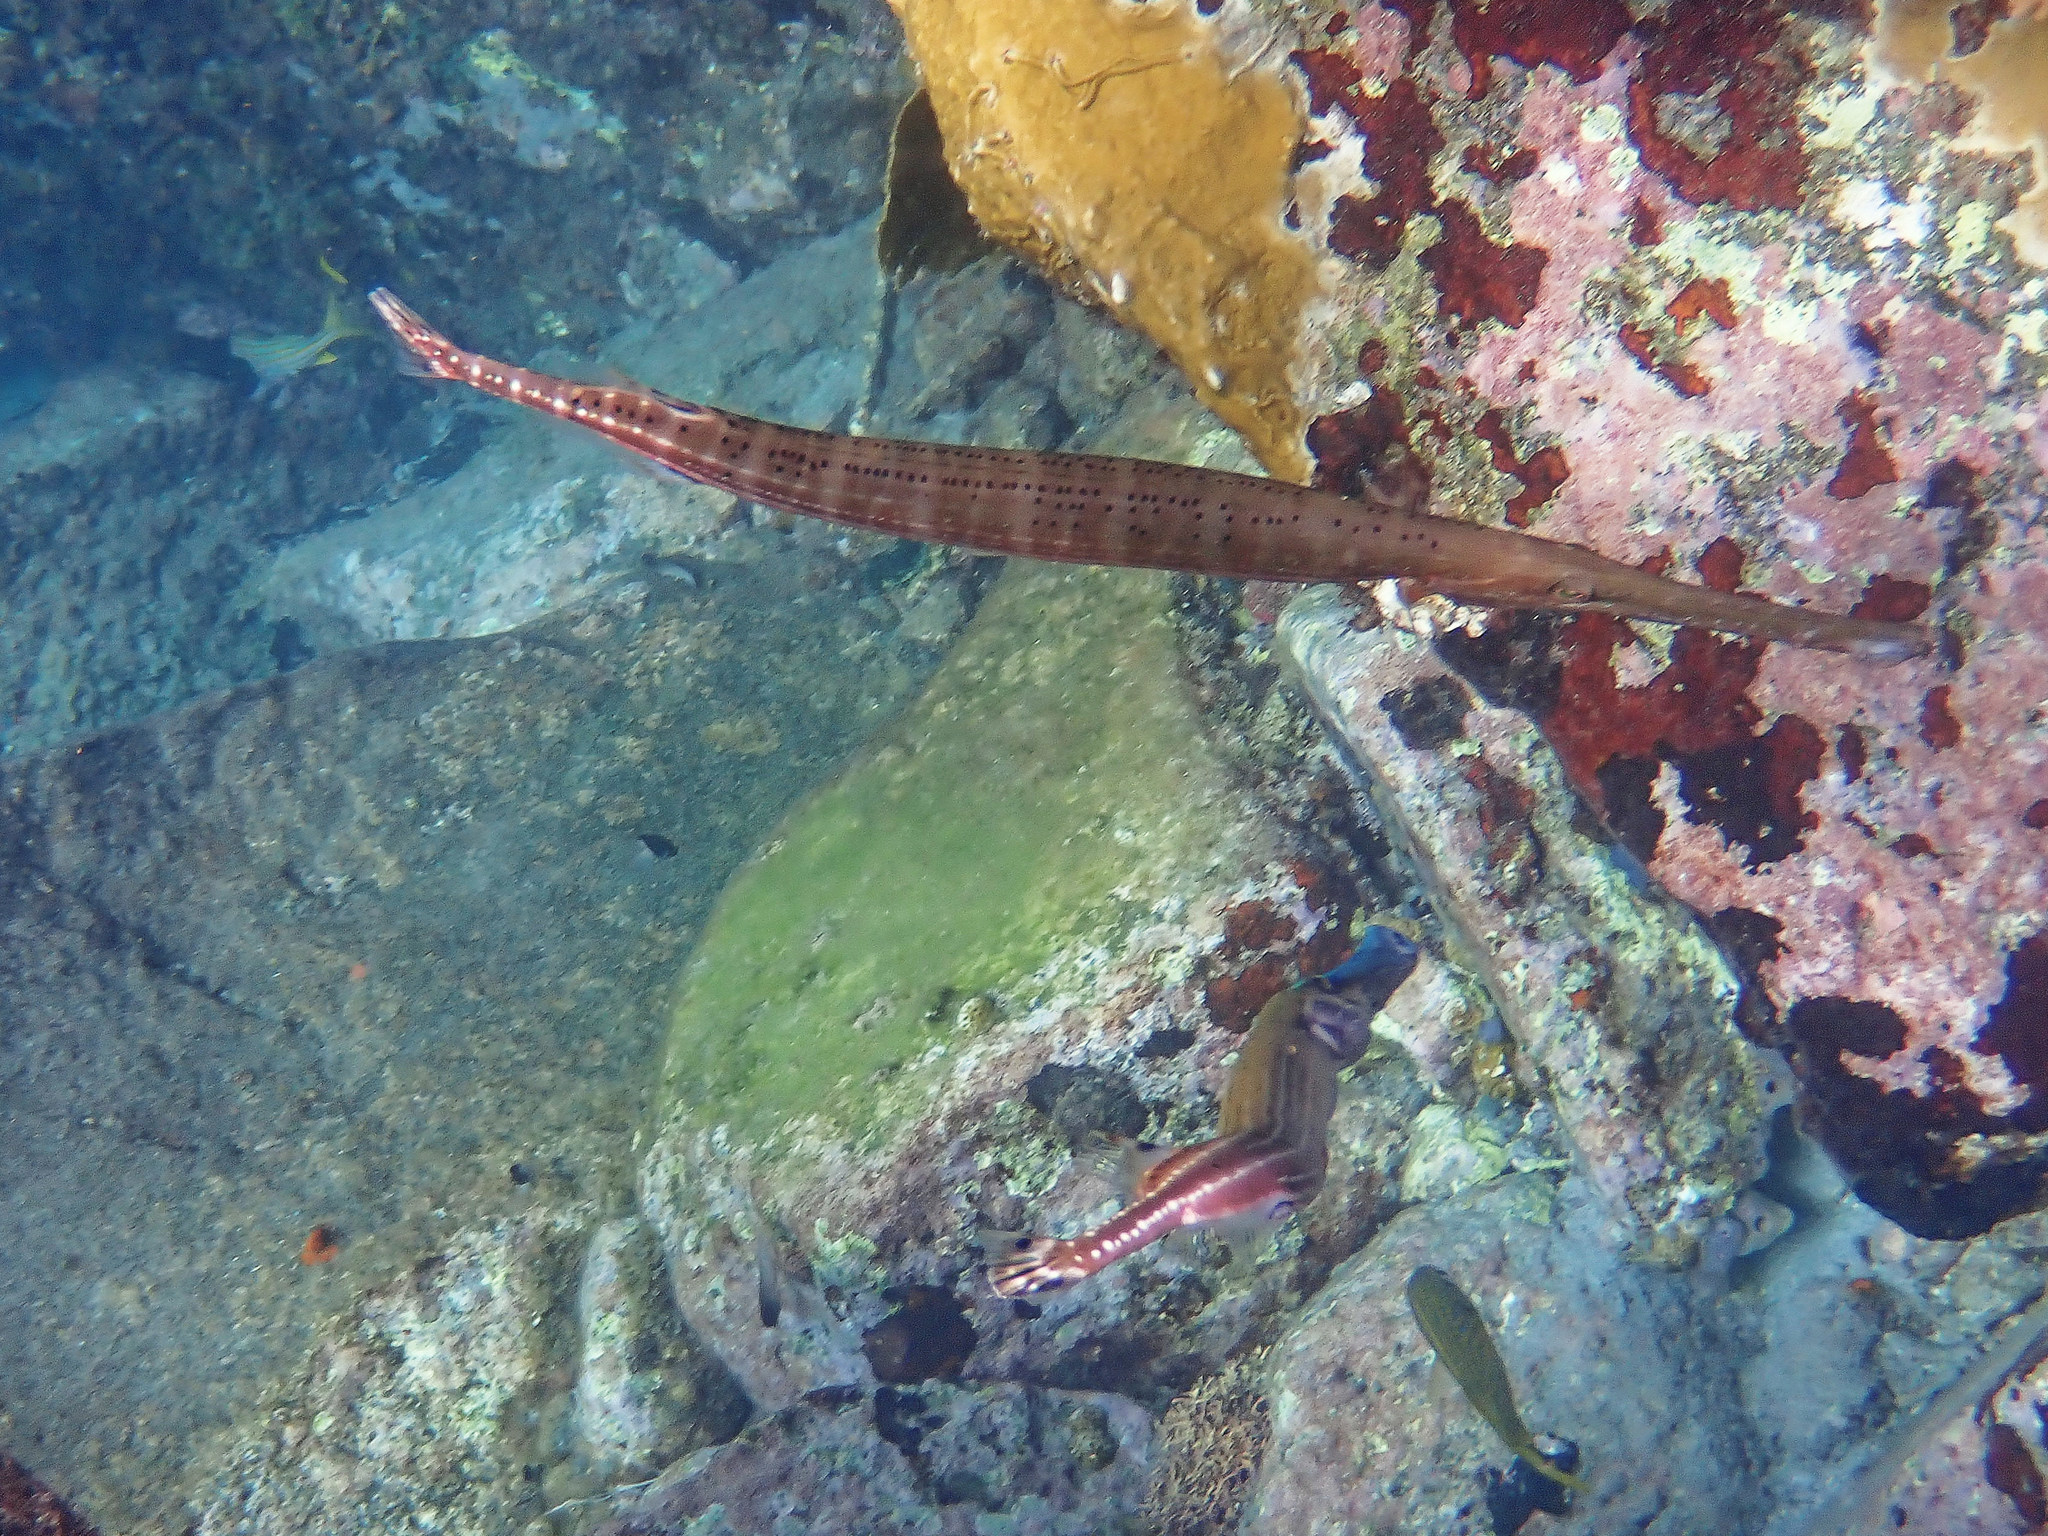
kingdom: Animalia
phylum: Chordata
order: Syngnathiformes
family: Aulostomidae
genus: Aulostomus
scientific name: Aulostomus maculatus
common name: West atlantic trumpetfish
